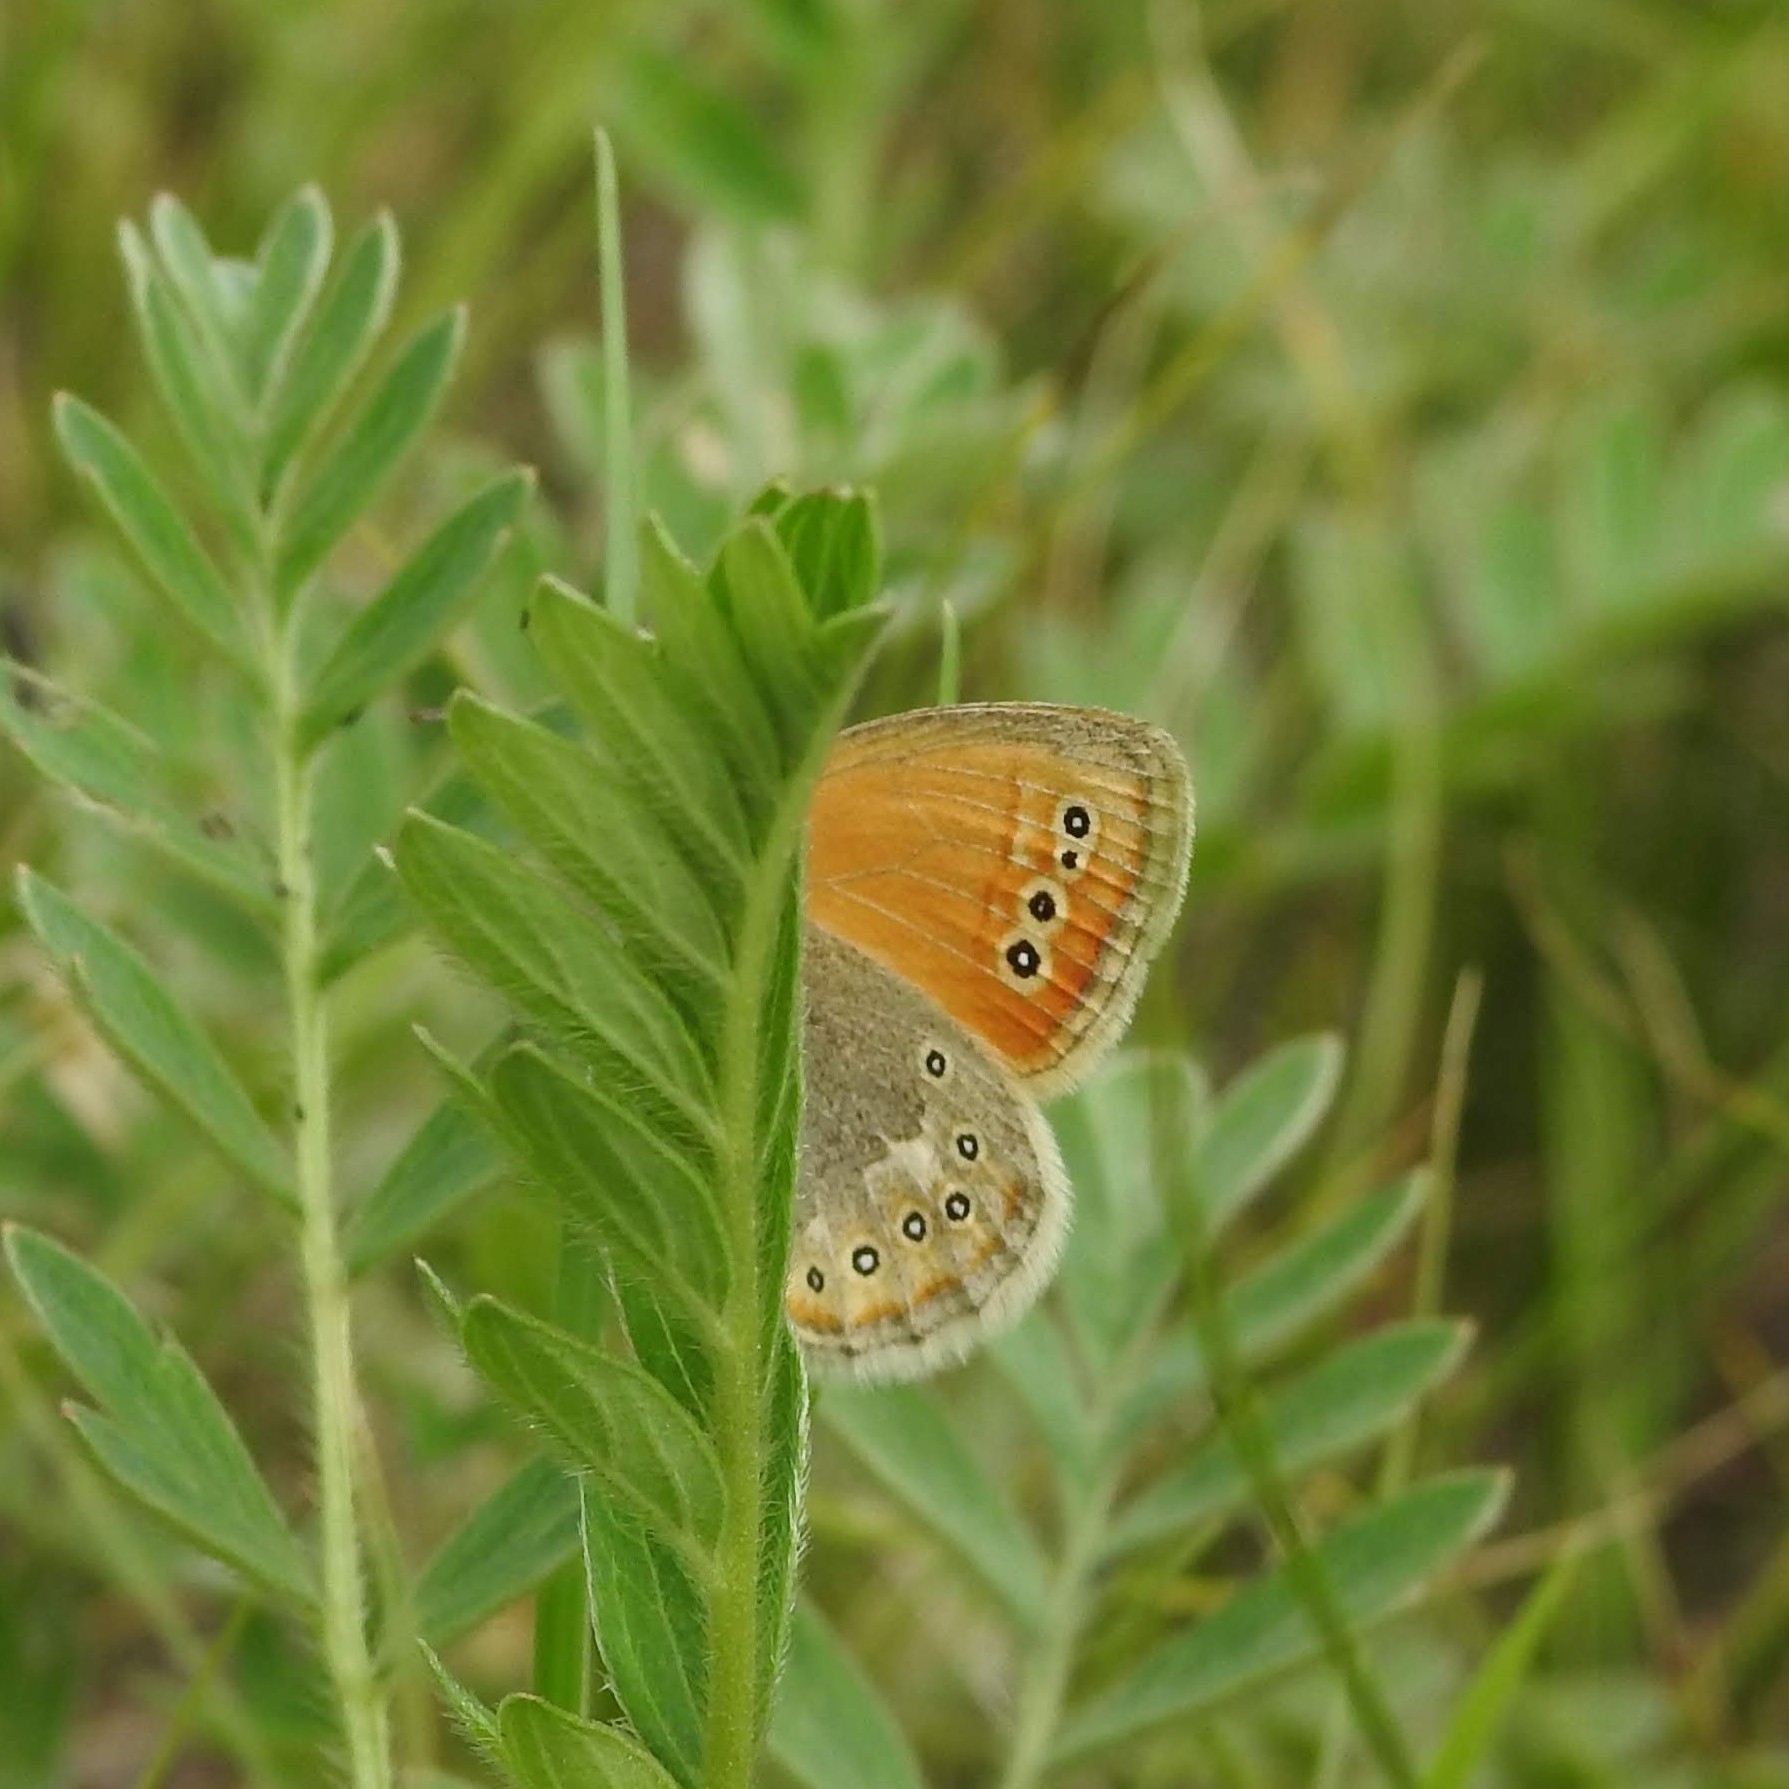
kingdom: Animalia
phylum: Arthropoda
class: Insecta
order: Lepidoptera
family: Nymphalidae
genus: Coenonympha
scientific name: Coenonympha amaryllis
